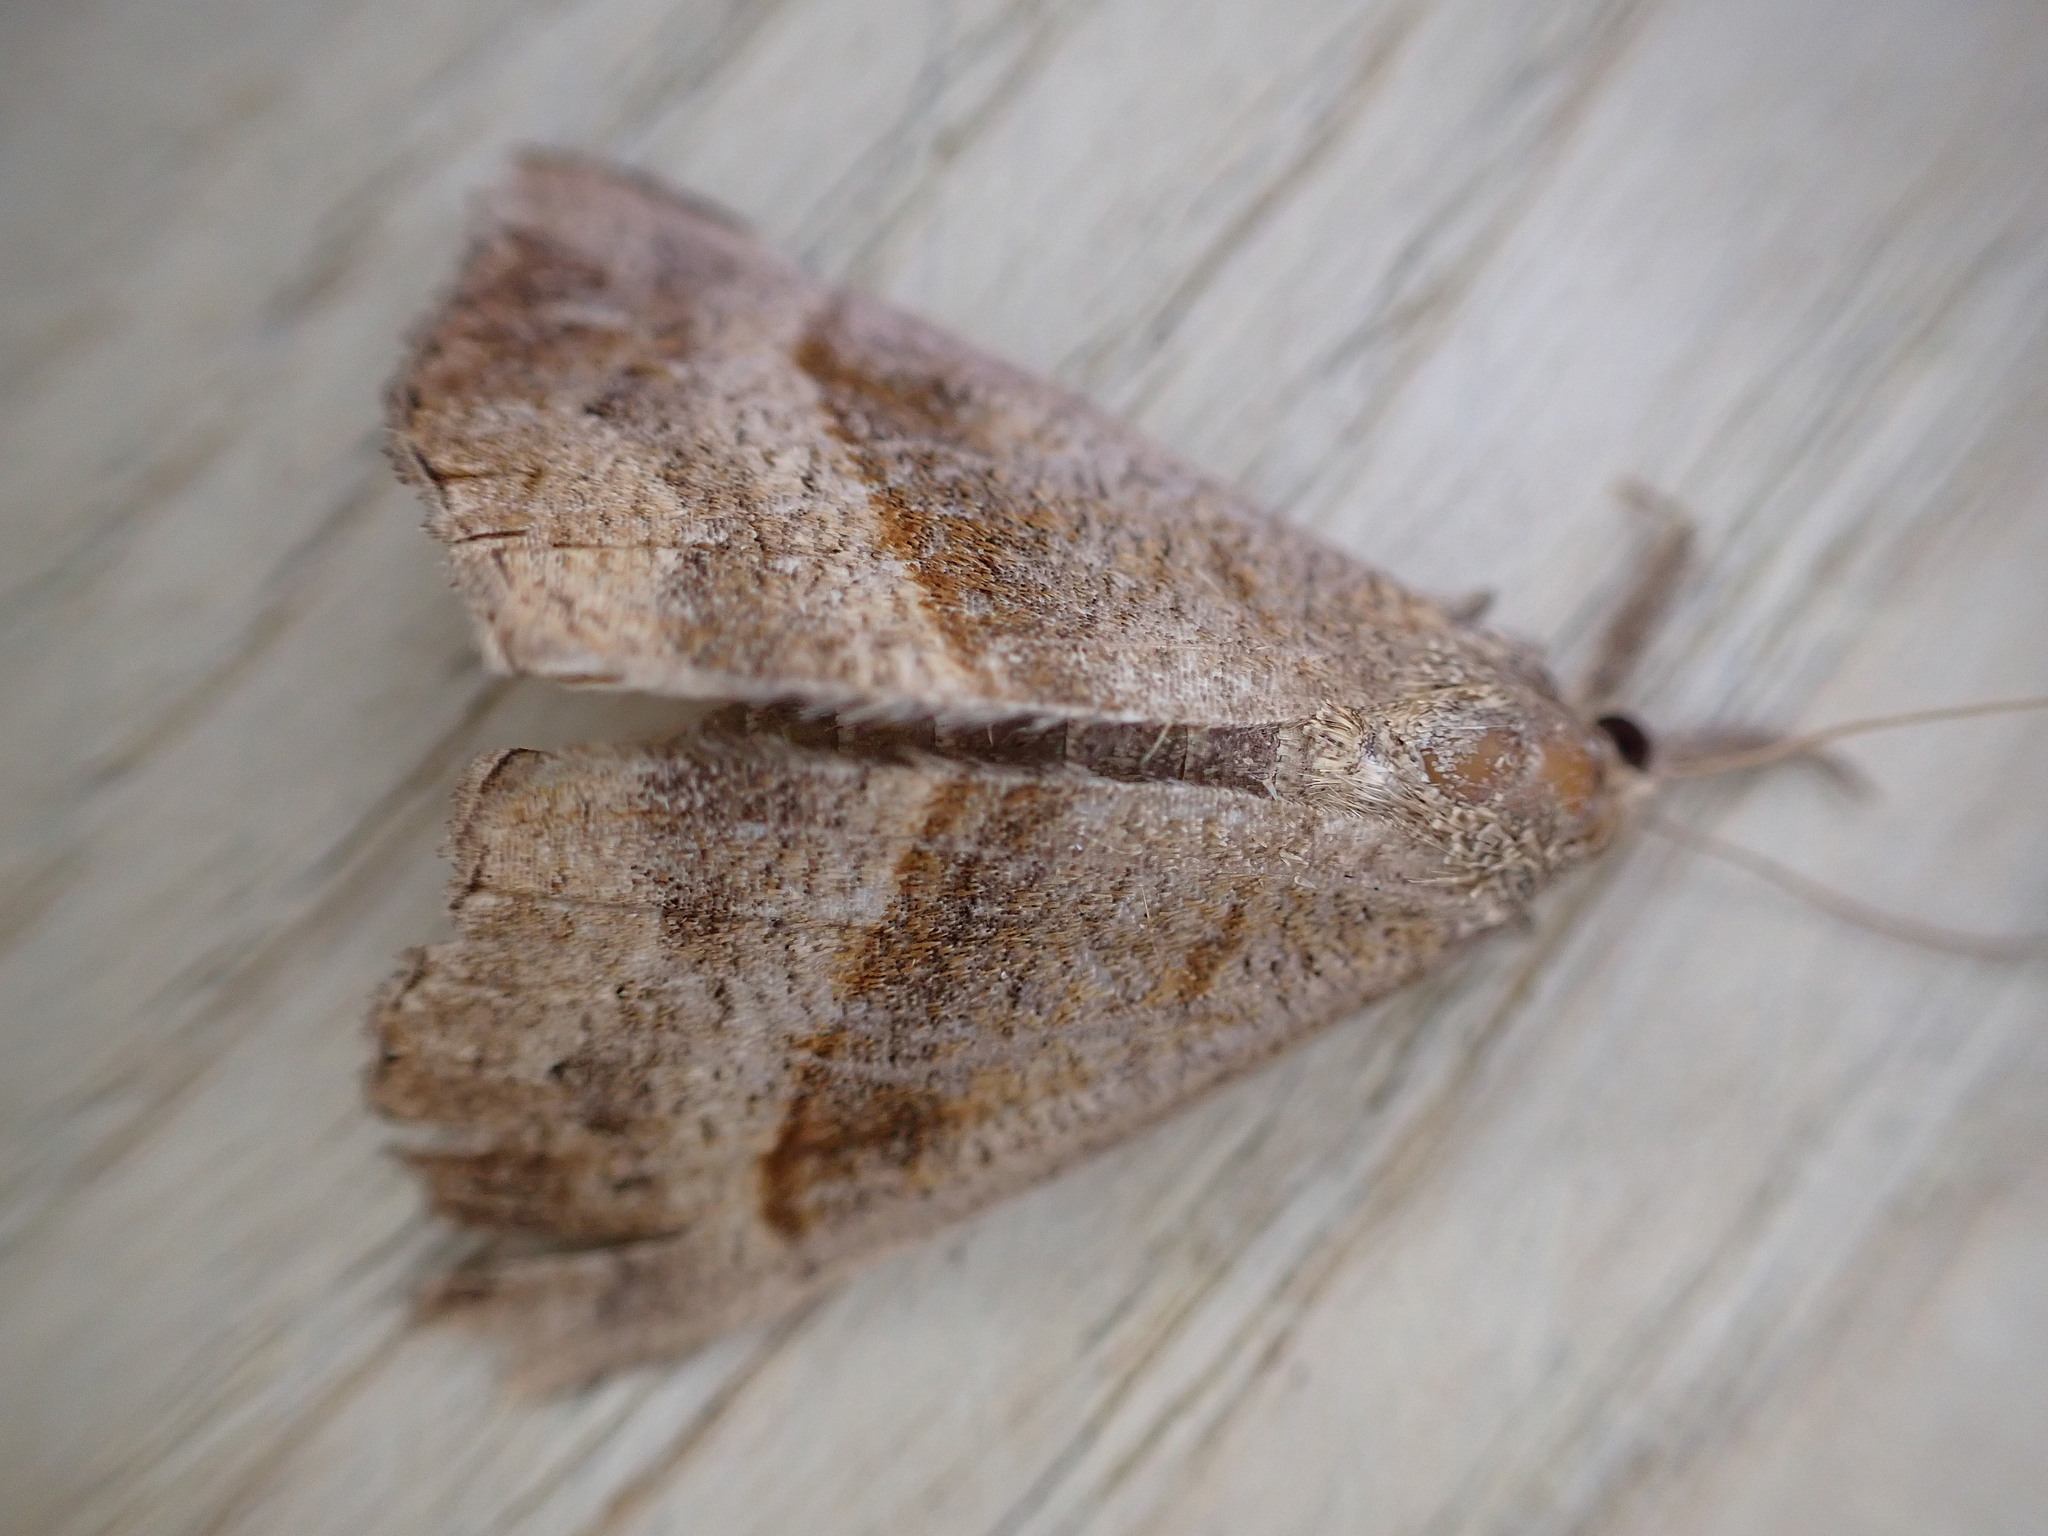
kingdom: Animalia
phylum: Arthropoda
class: Insecta
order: Lepidoptera
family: Erebidae
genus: Hypena
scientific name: Hypena proboscidalis
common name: Snout
